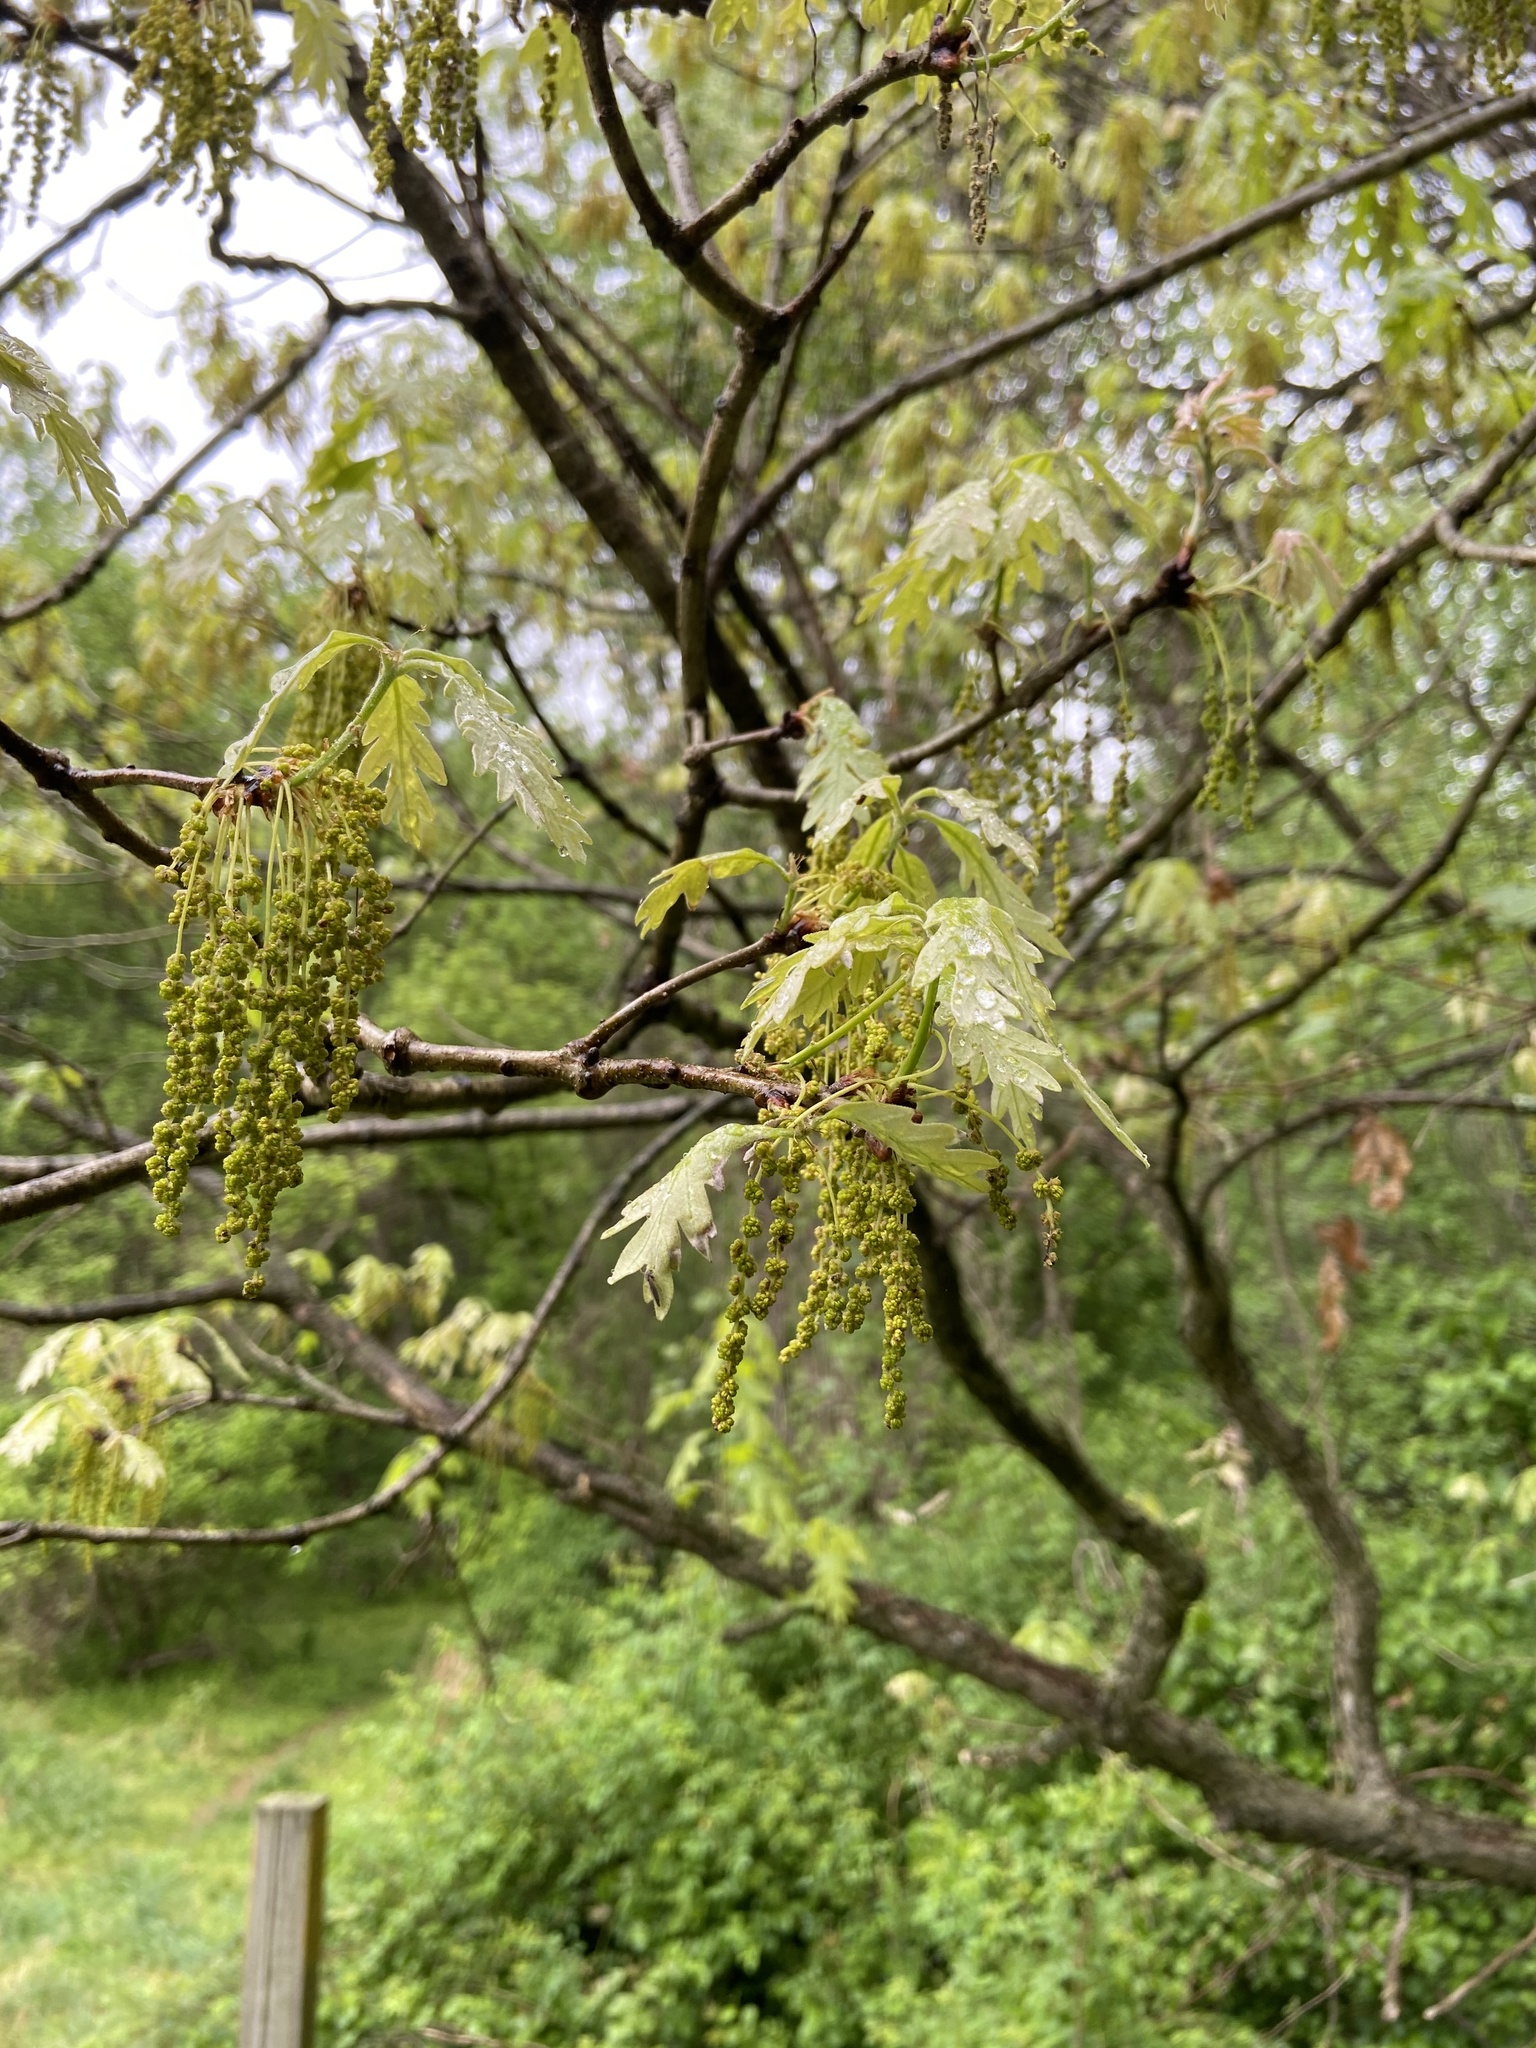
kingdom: Plantae
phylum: Tracheophyta
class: Magnoliopsida
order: Fagales
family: Fagaceae
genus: Quercus
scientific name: Quercus alba
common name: White oak
